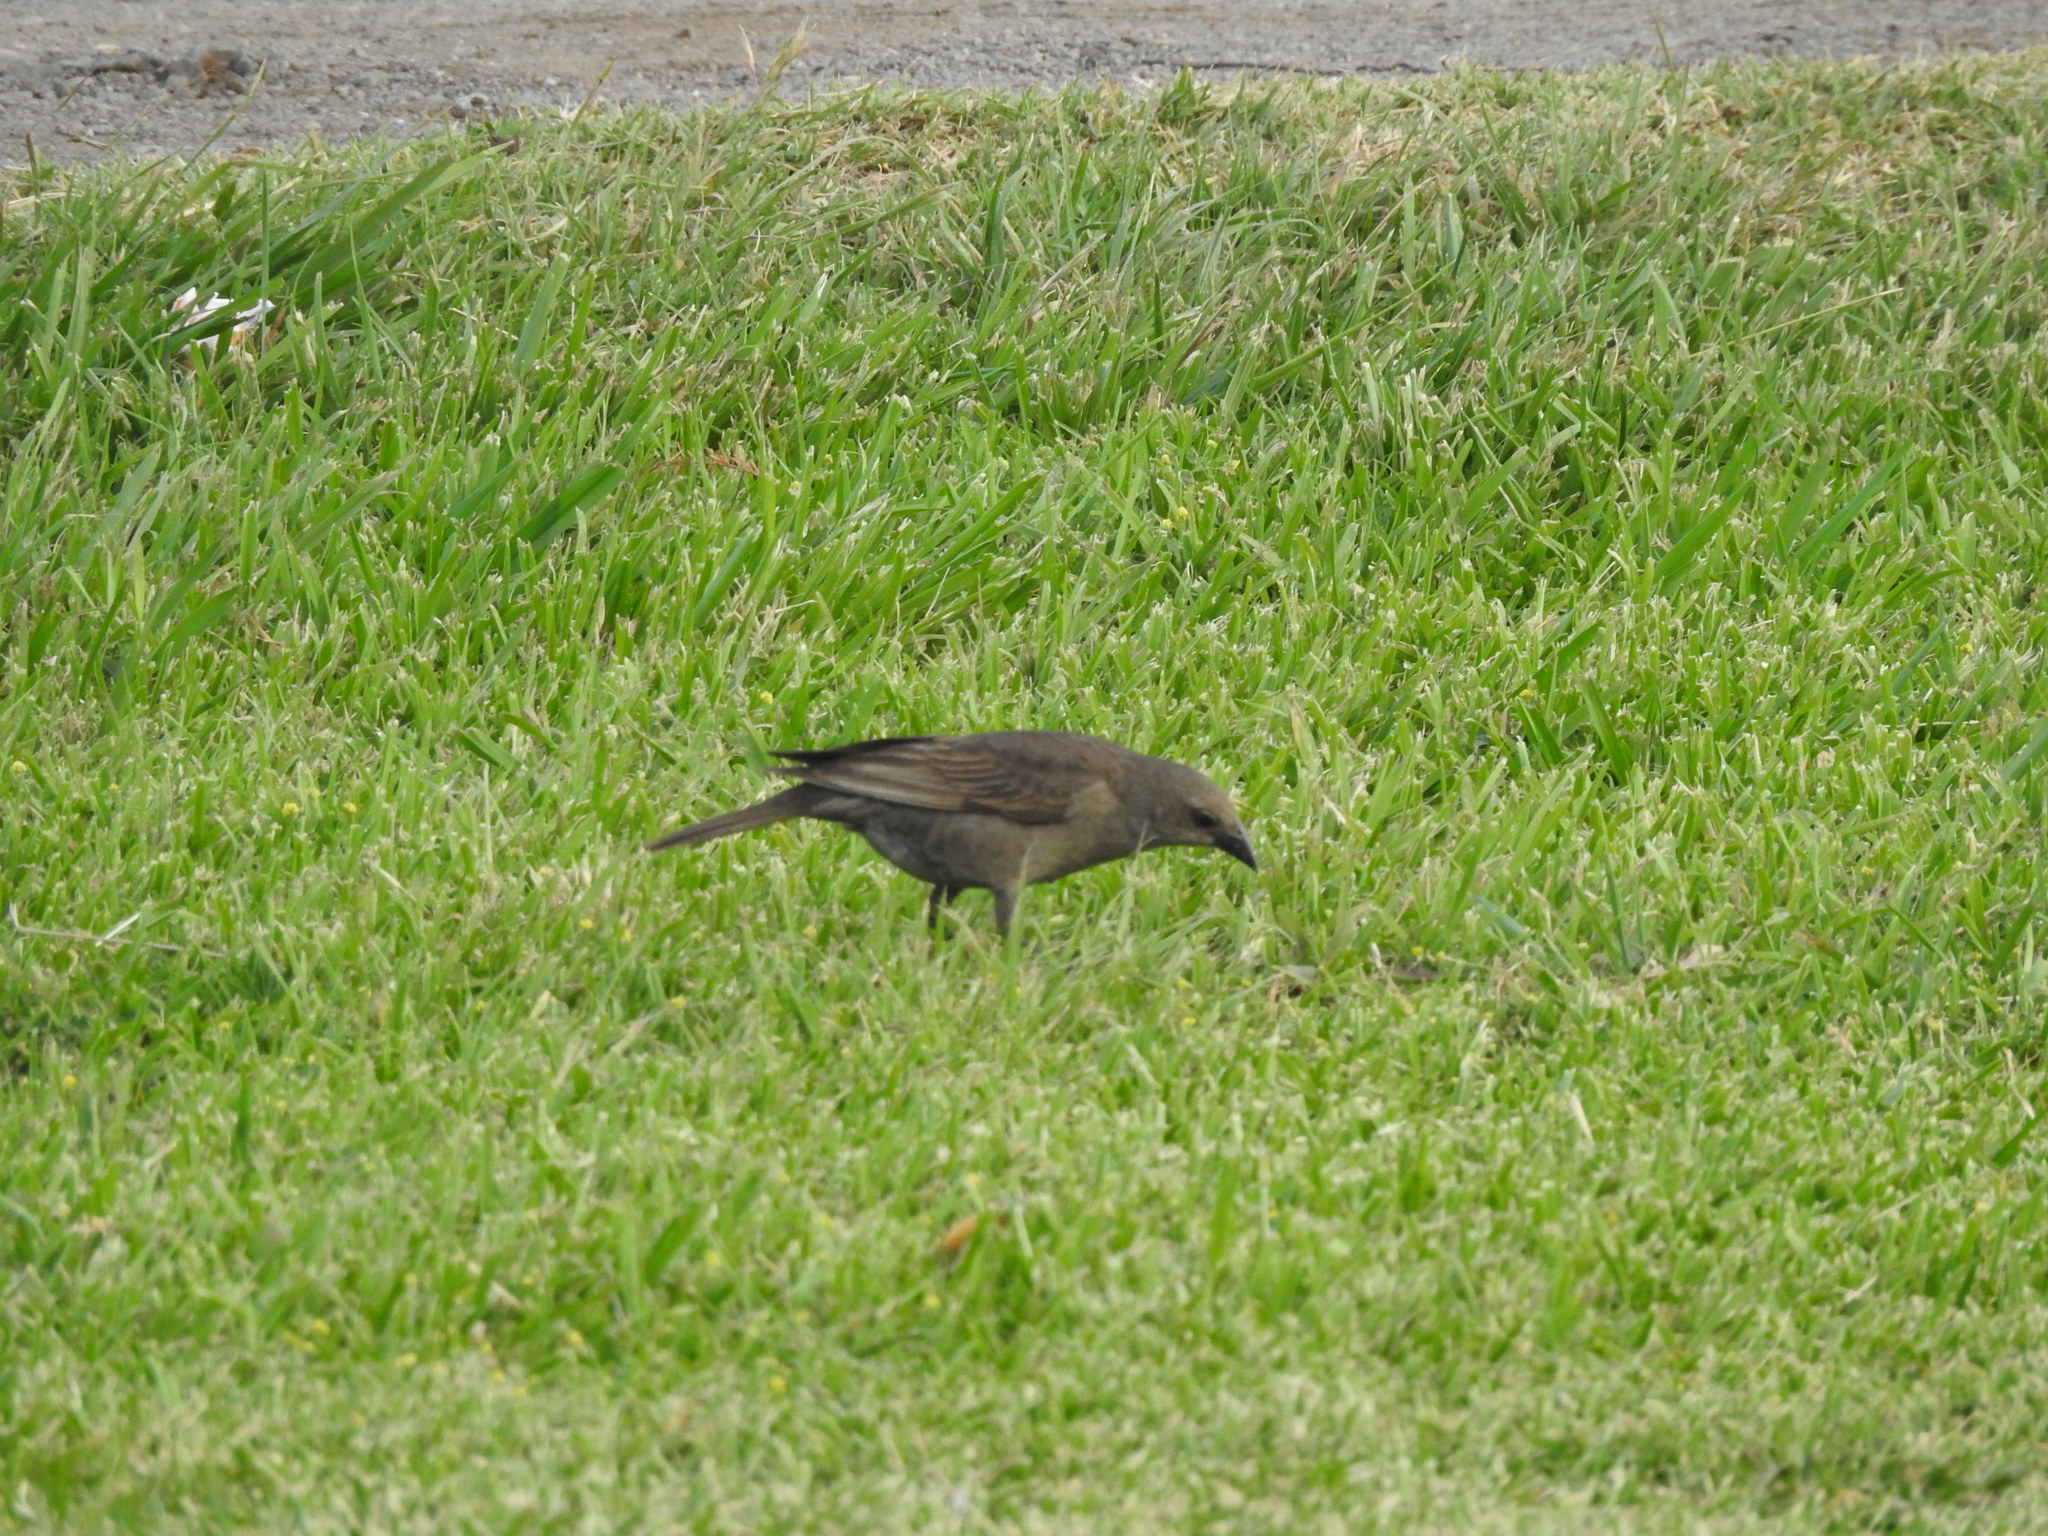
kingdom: Animalia
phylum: Chordata
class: Aves
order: Passeriformes
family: Icteridae
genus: Molothrus
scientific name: Molothrus bonariensis
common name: Shiny cowbird
